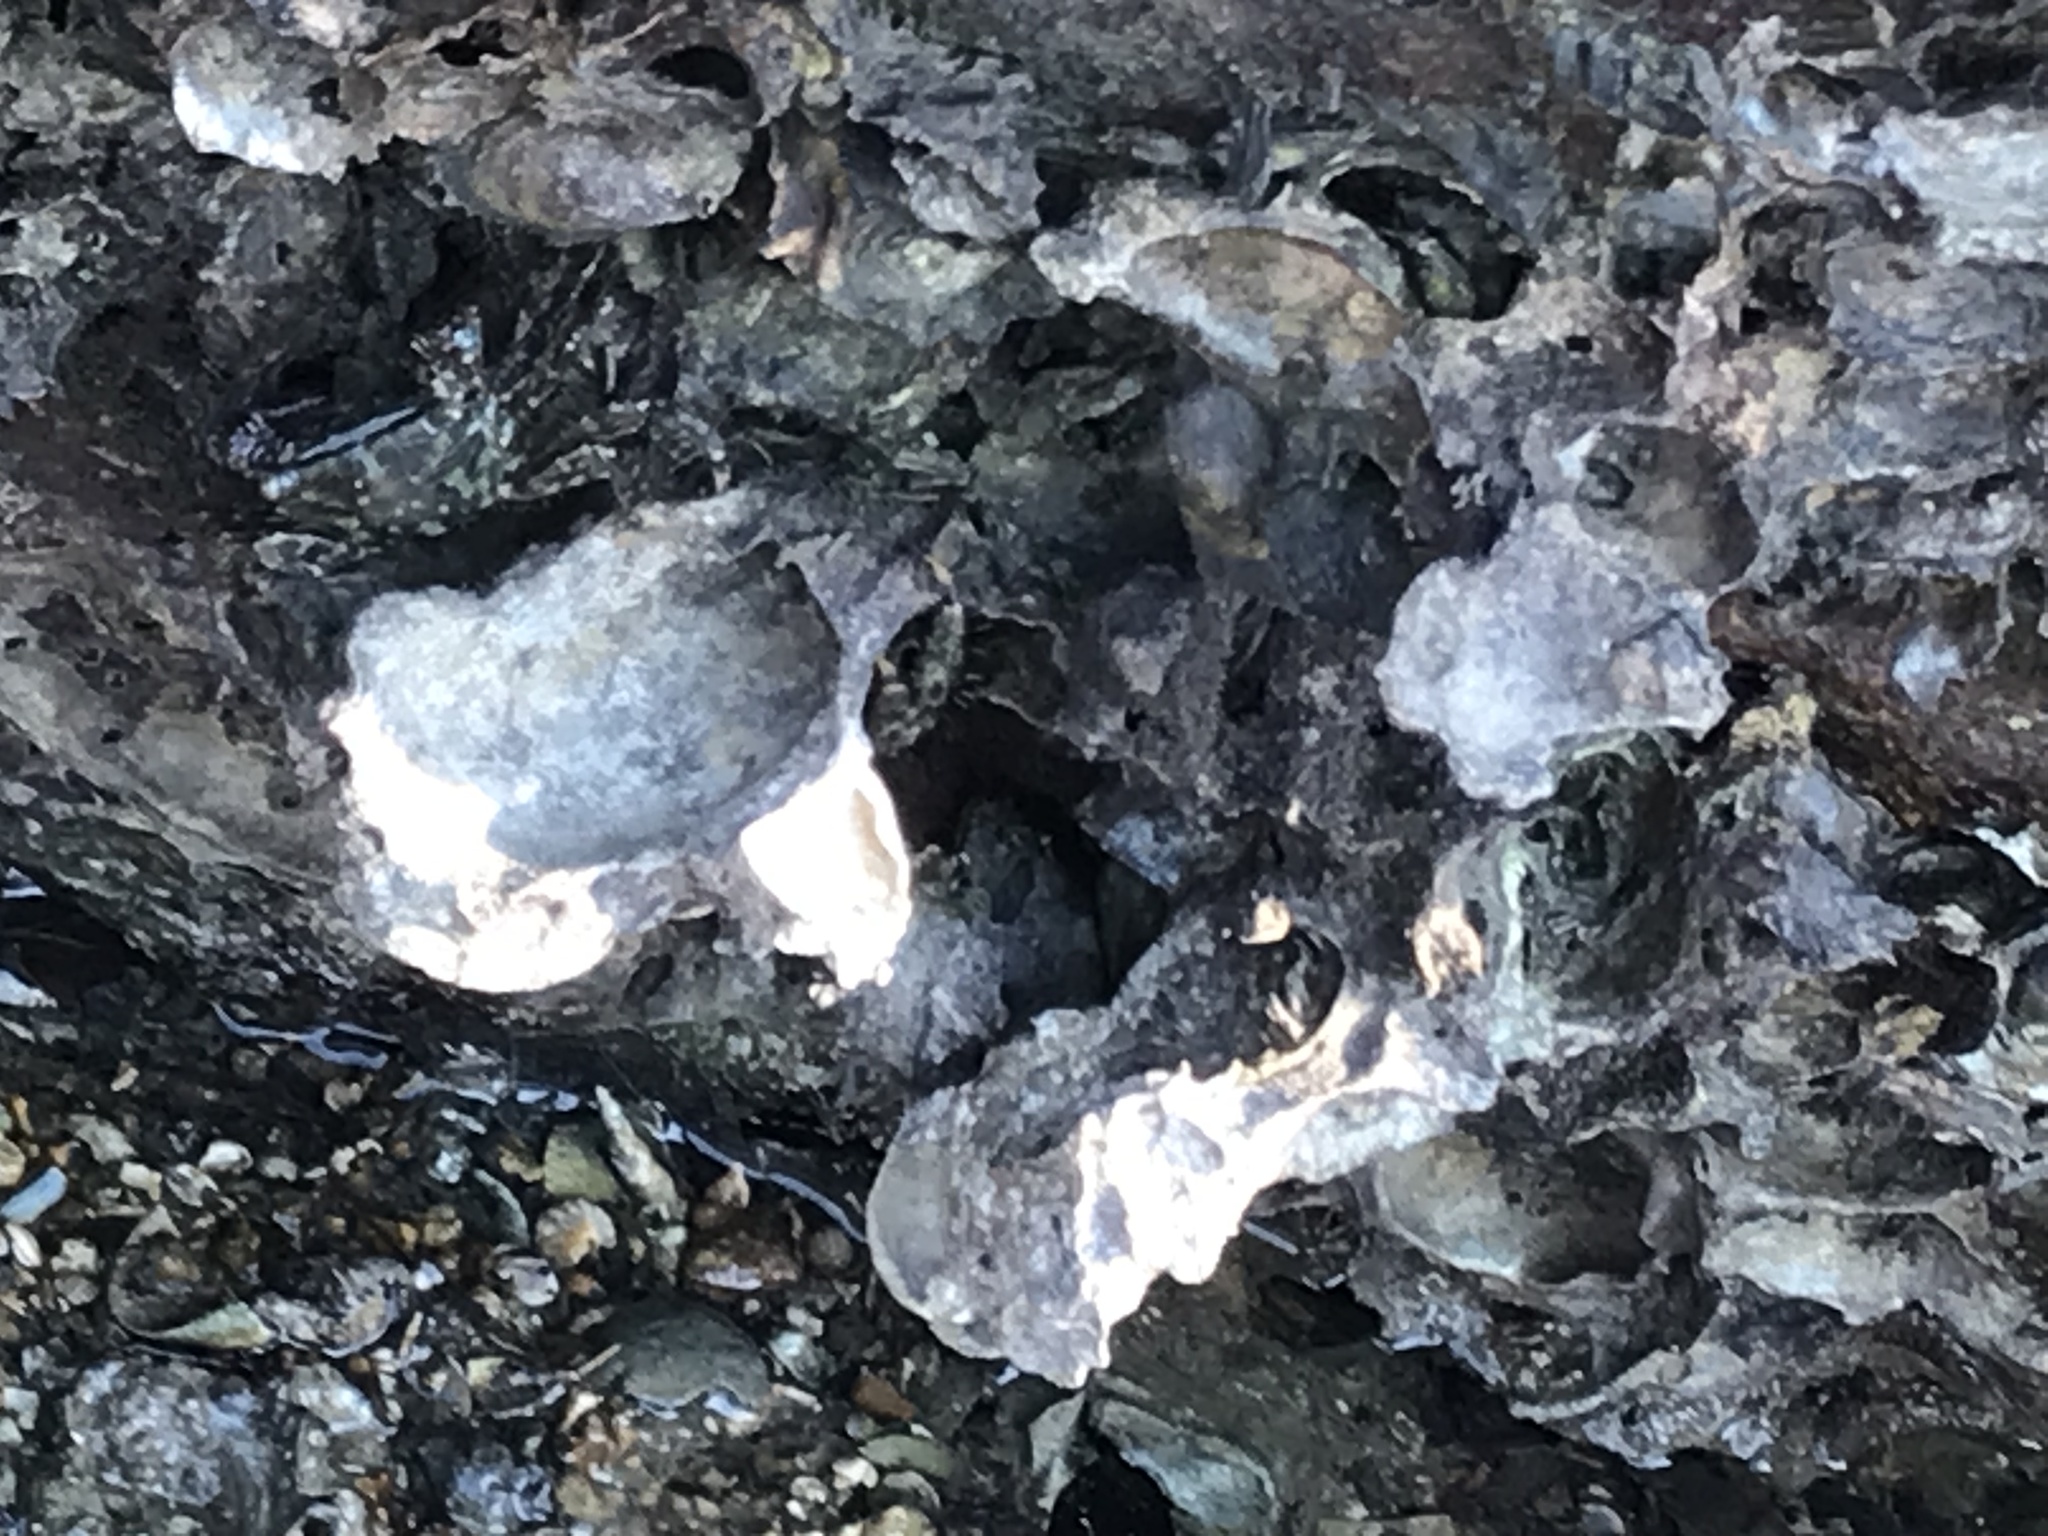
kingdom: Animalia
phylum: Arthropoda
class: Malacostraca
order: Decapoda
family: Grapsidae
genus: Metopograpsus
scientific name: Metopograpsus frontalis
